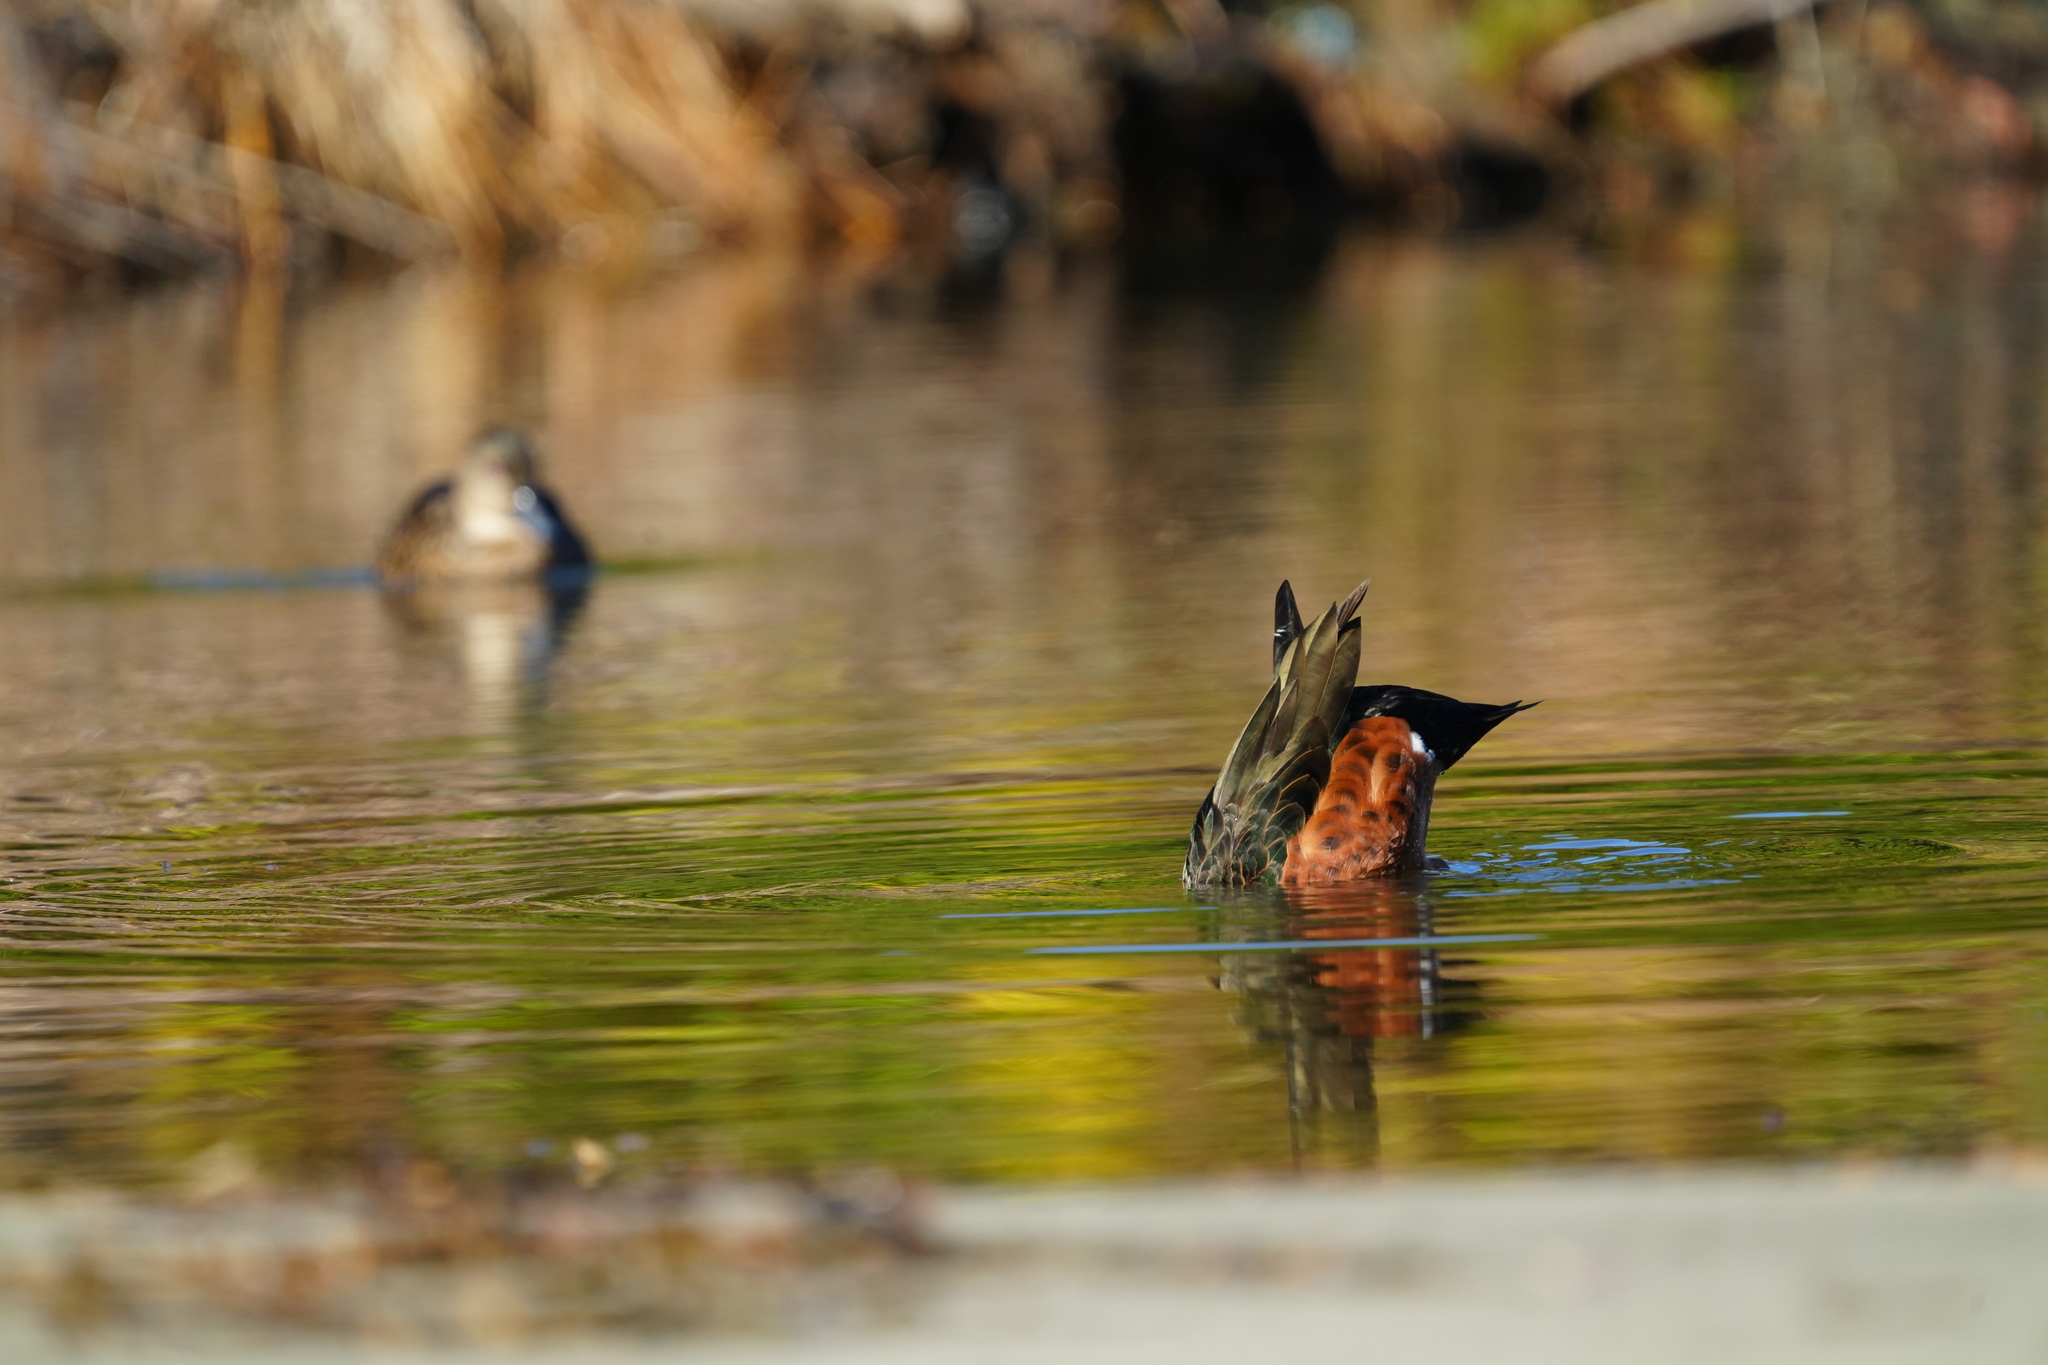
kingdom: Animalia
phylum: Chordata
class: Aves
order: Anseriformes
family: Anatidae
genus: Anas
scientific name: Anas castanea
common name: Chestnut teal
